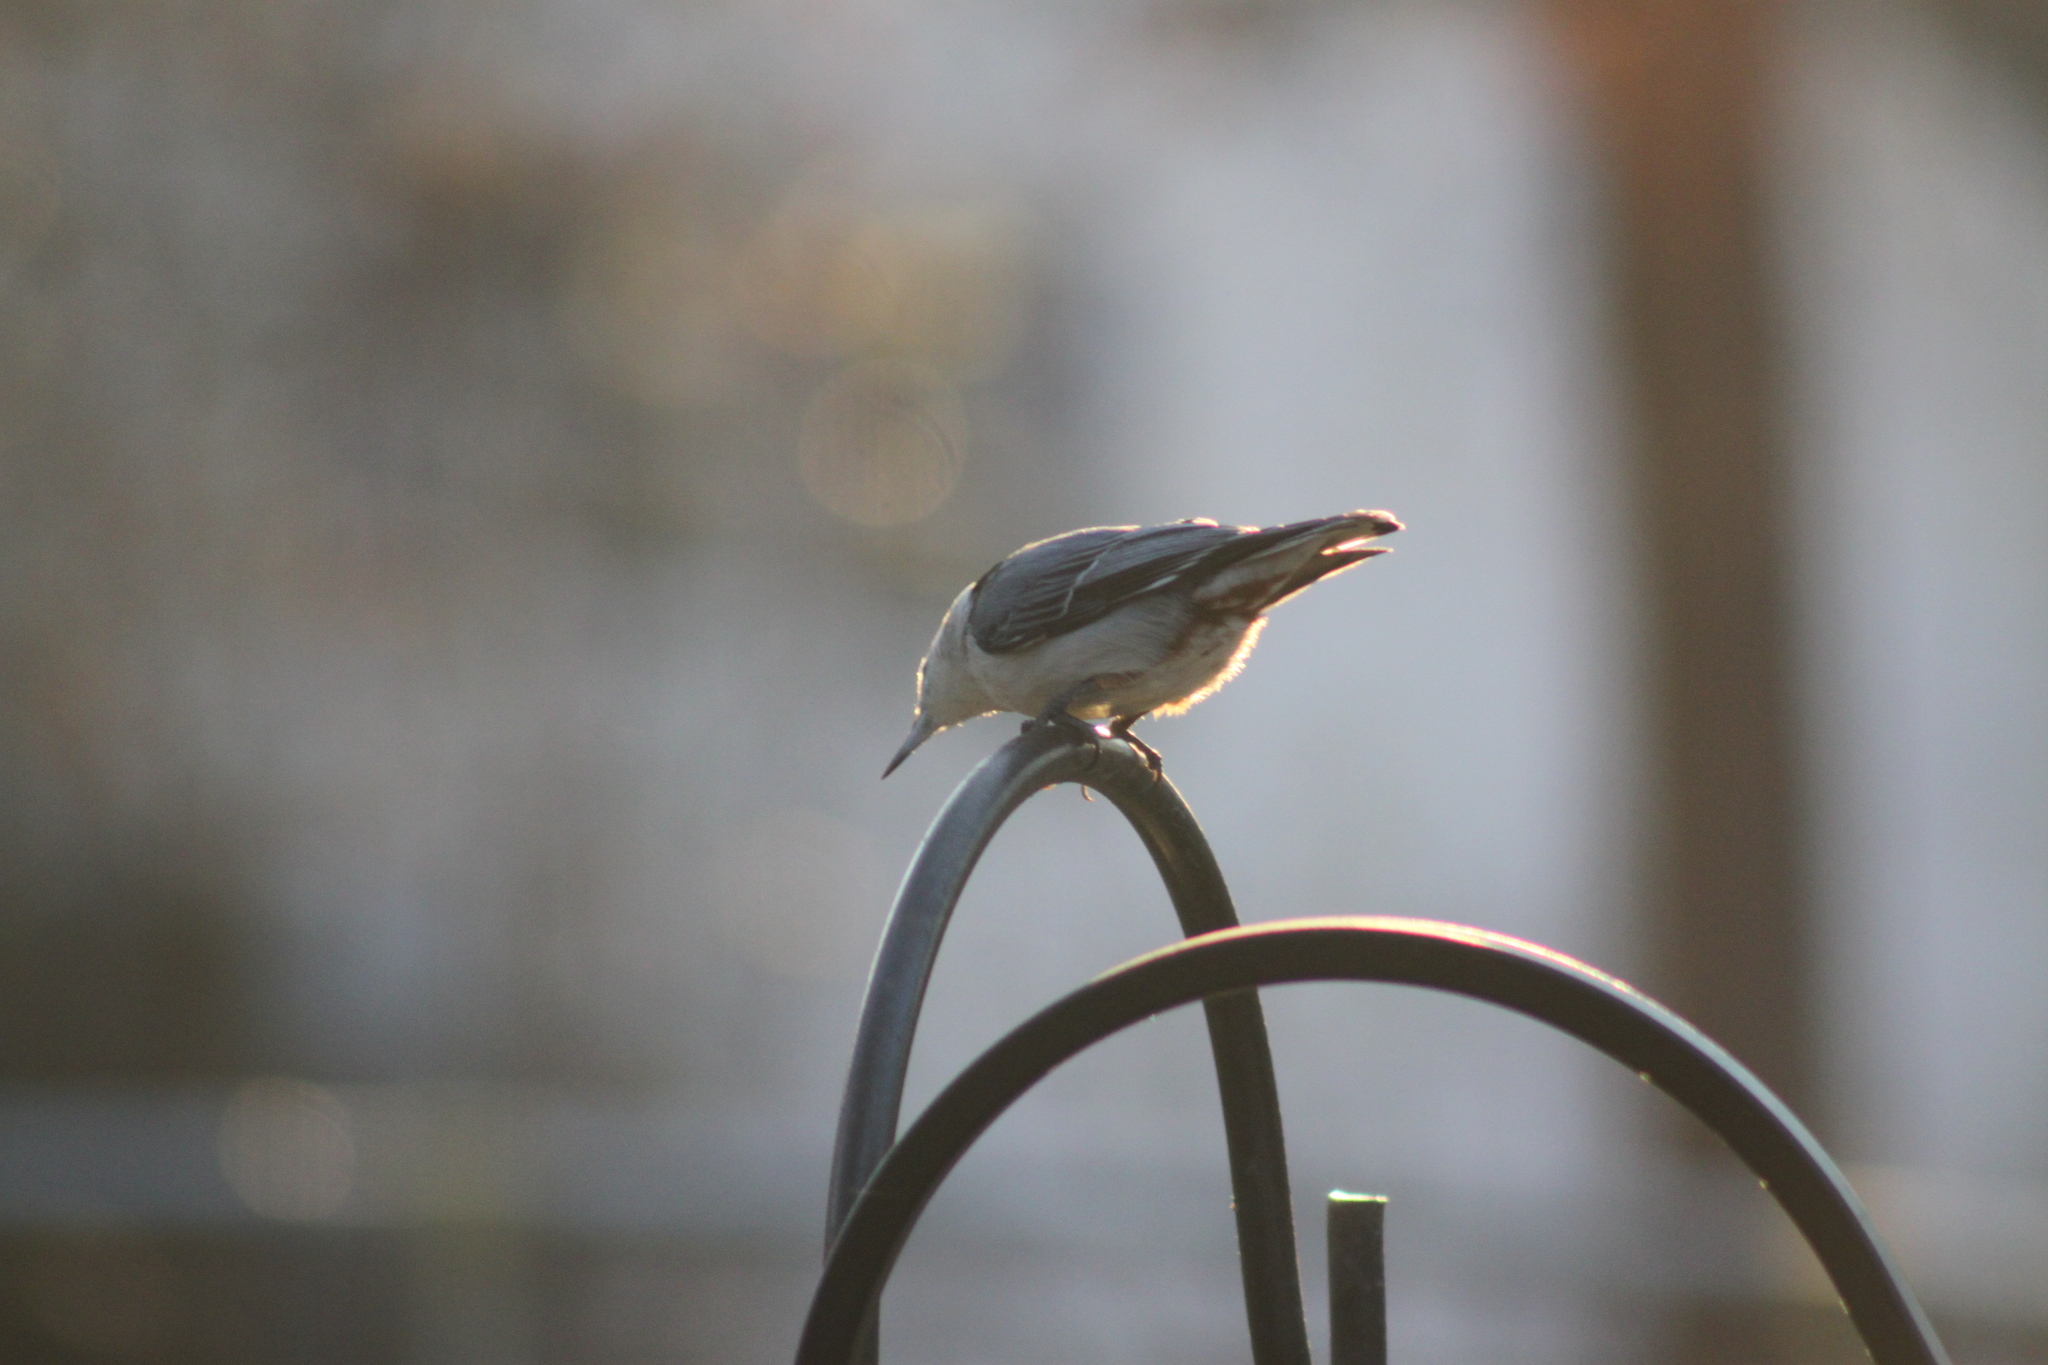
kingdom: Animalia
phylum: Chordata
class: Aves
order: Passeriformes
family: Sittidae
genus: Sitta
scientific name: Sitta carolinensis
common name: White-breasted nuthatch
